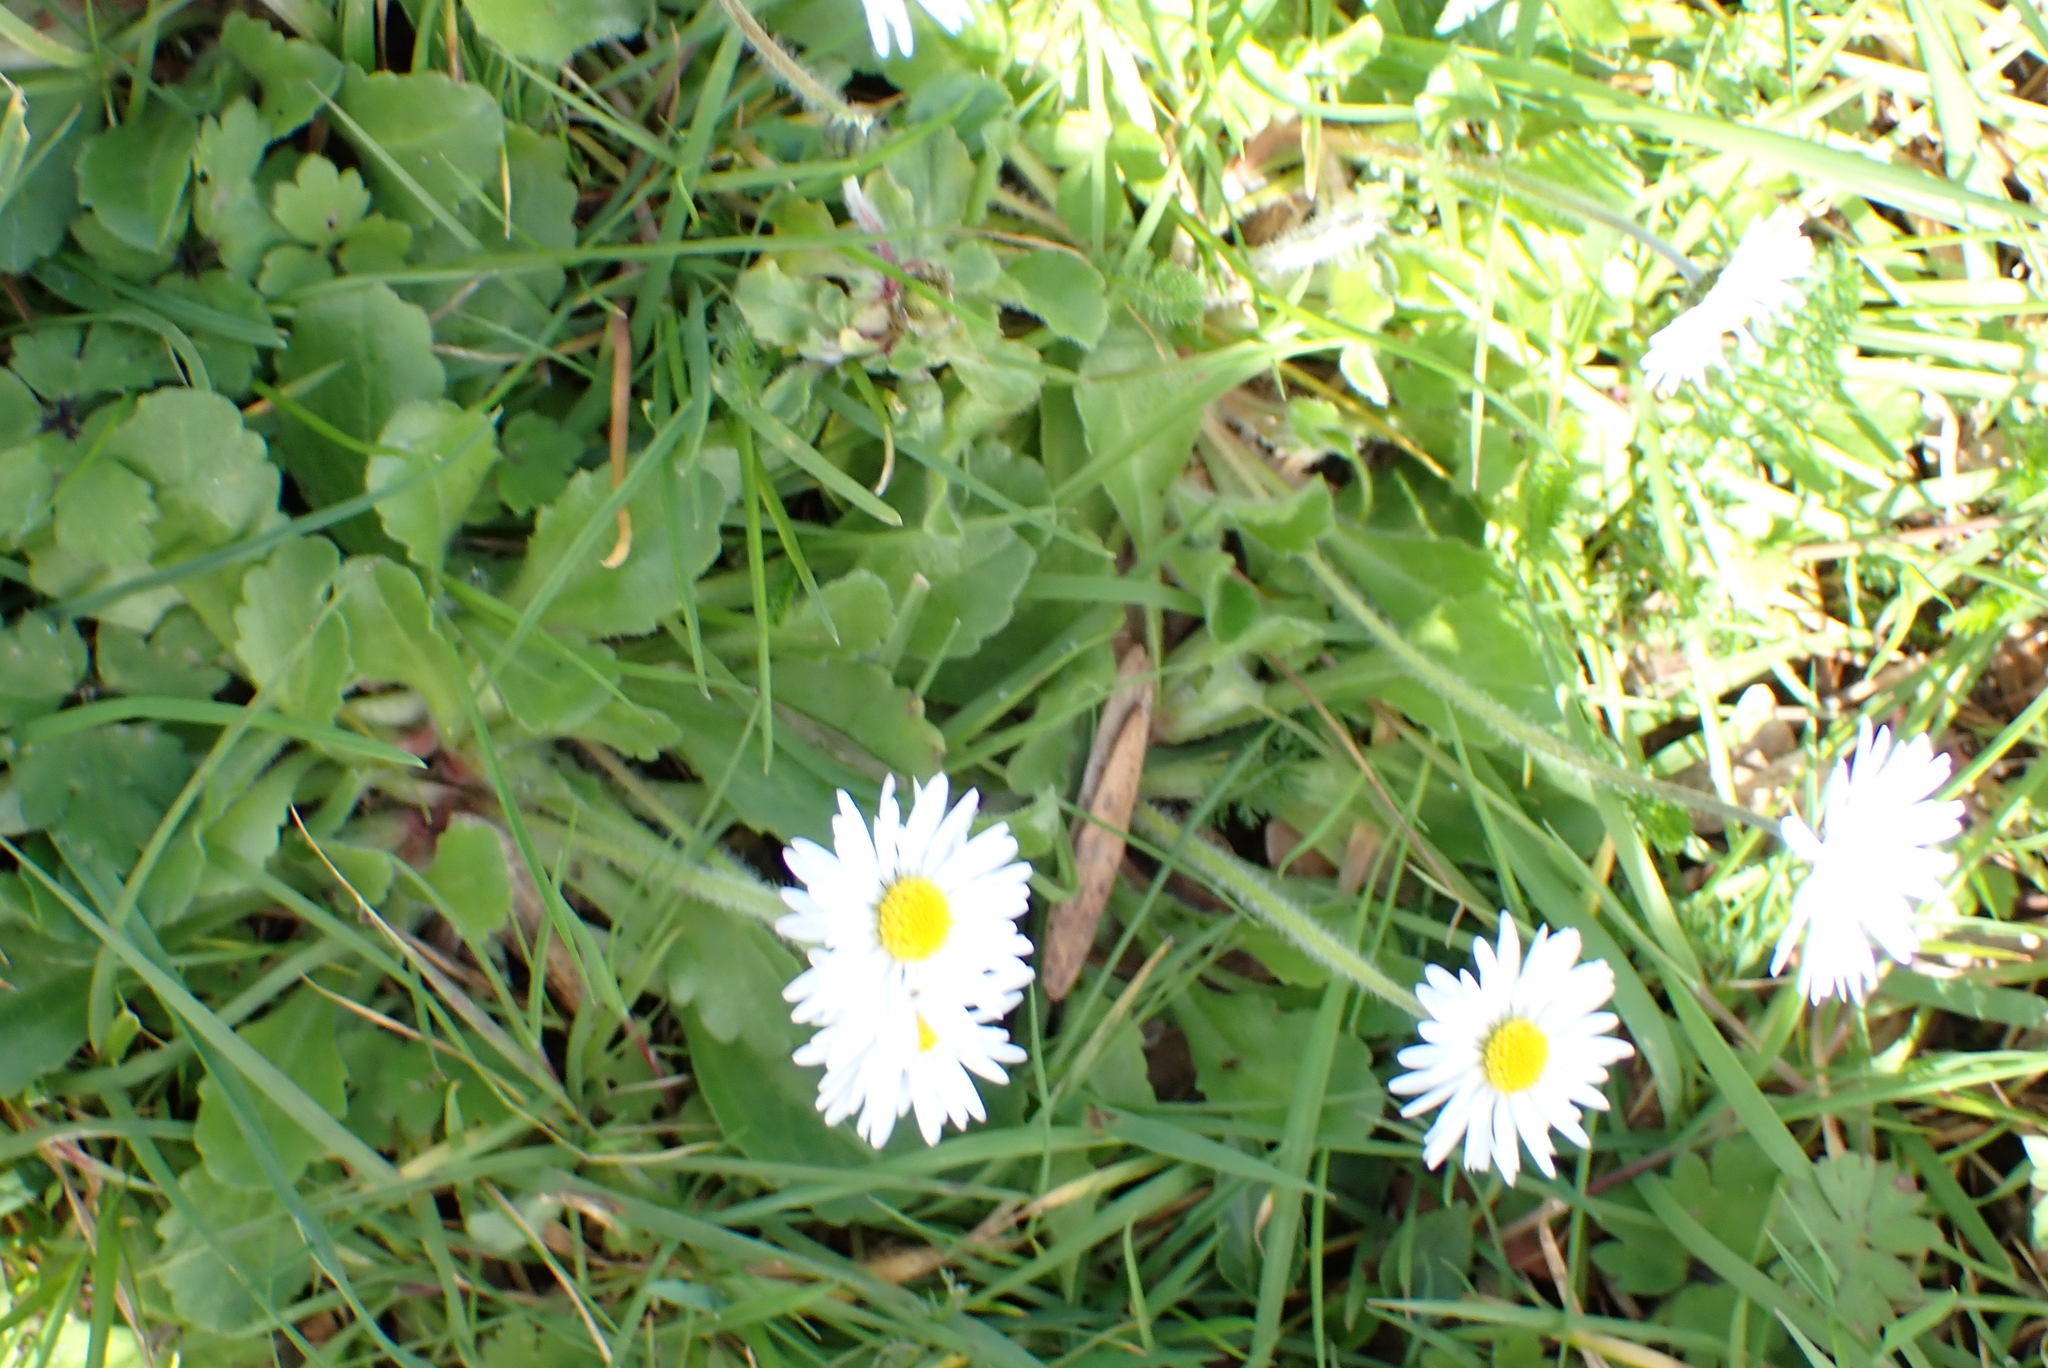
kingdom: Plantae
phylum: Tracheophyta
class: Magnoliopsida
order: Asterales
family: Asteraceae
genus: Bellis
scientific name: Bellis perennis
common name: Lawndaisy
